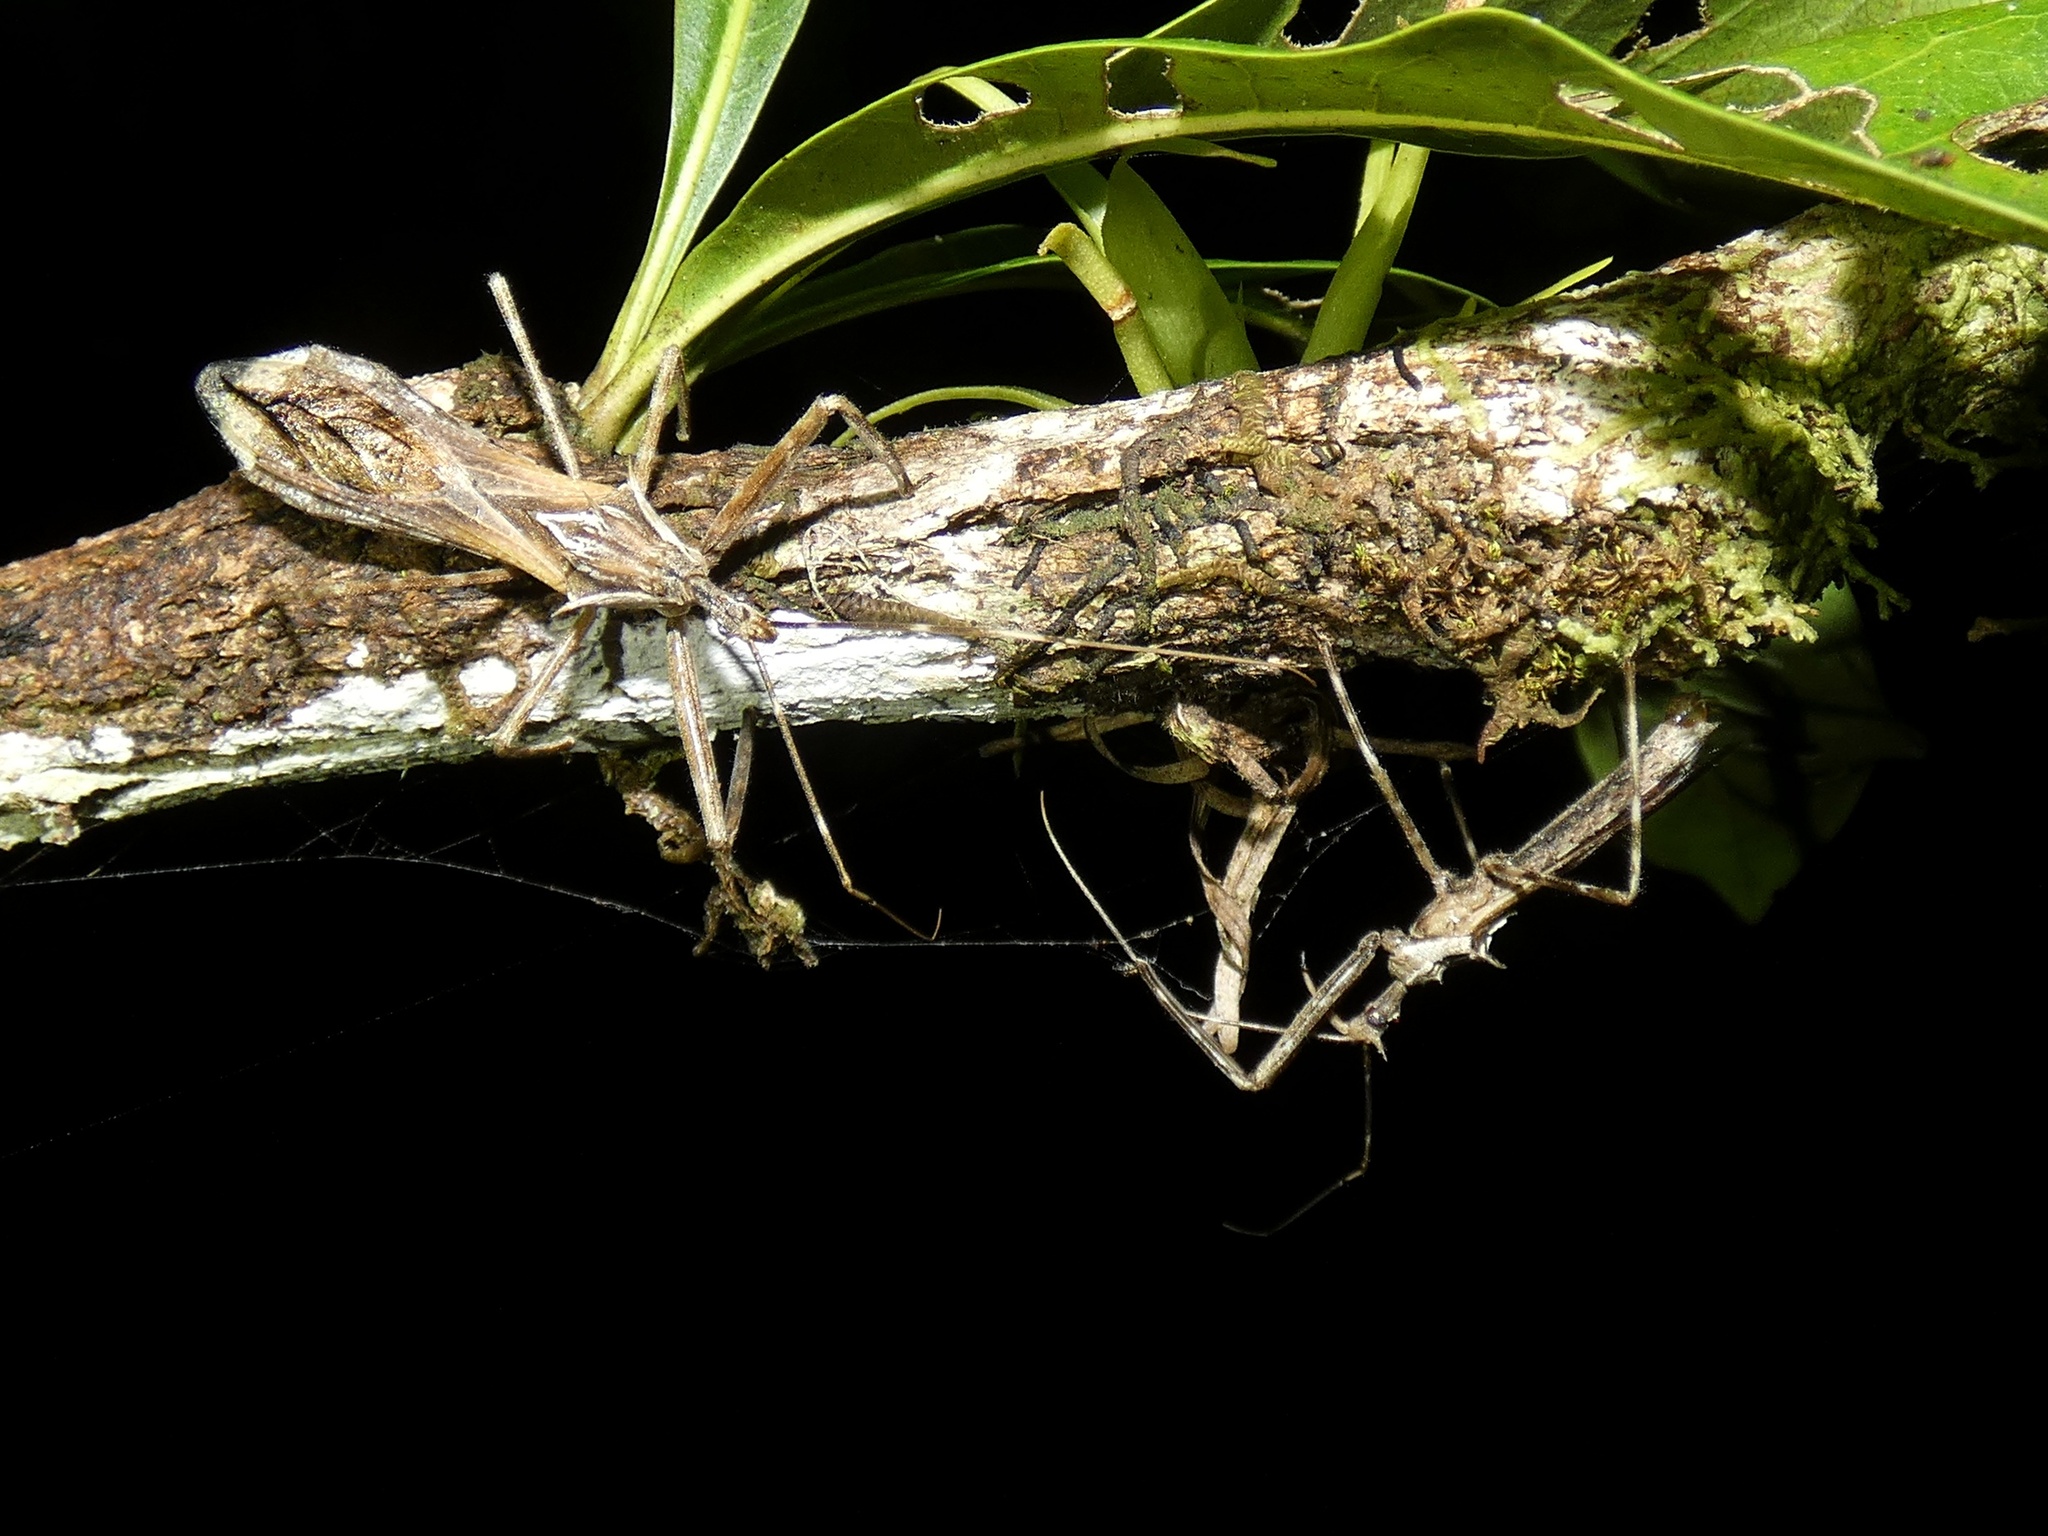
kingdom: Animalia
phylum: Arthropoda
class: Insecta
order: Hemiptera
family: Reduviidae
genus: Heza
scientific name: Heza fuscinervis
